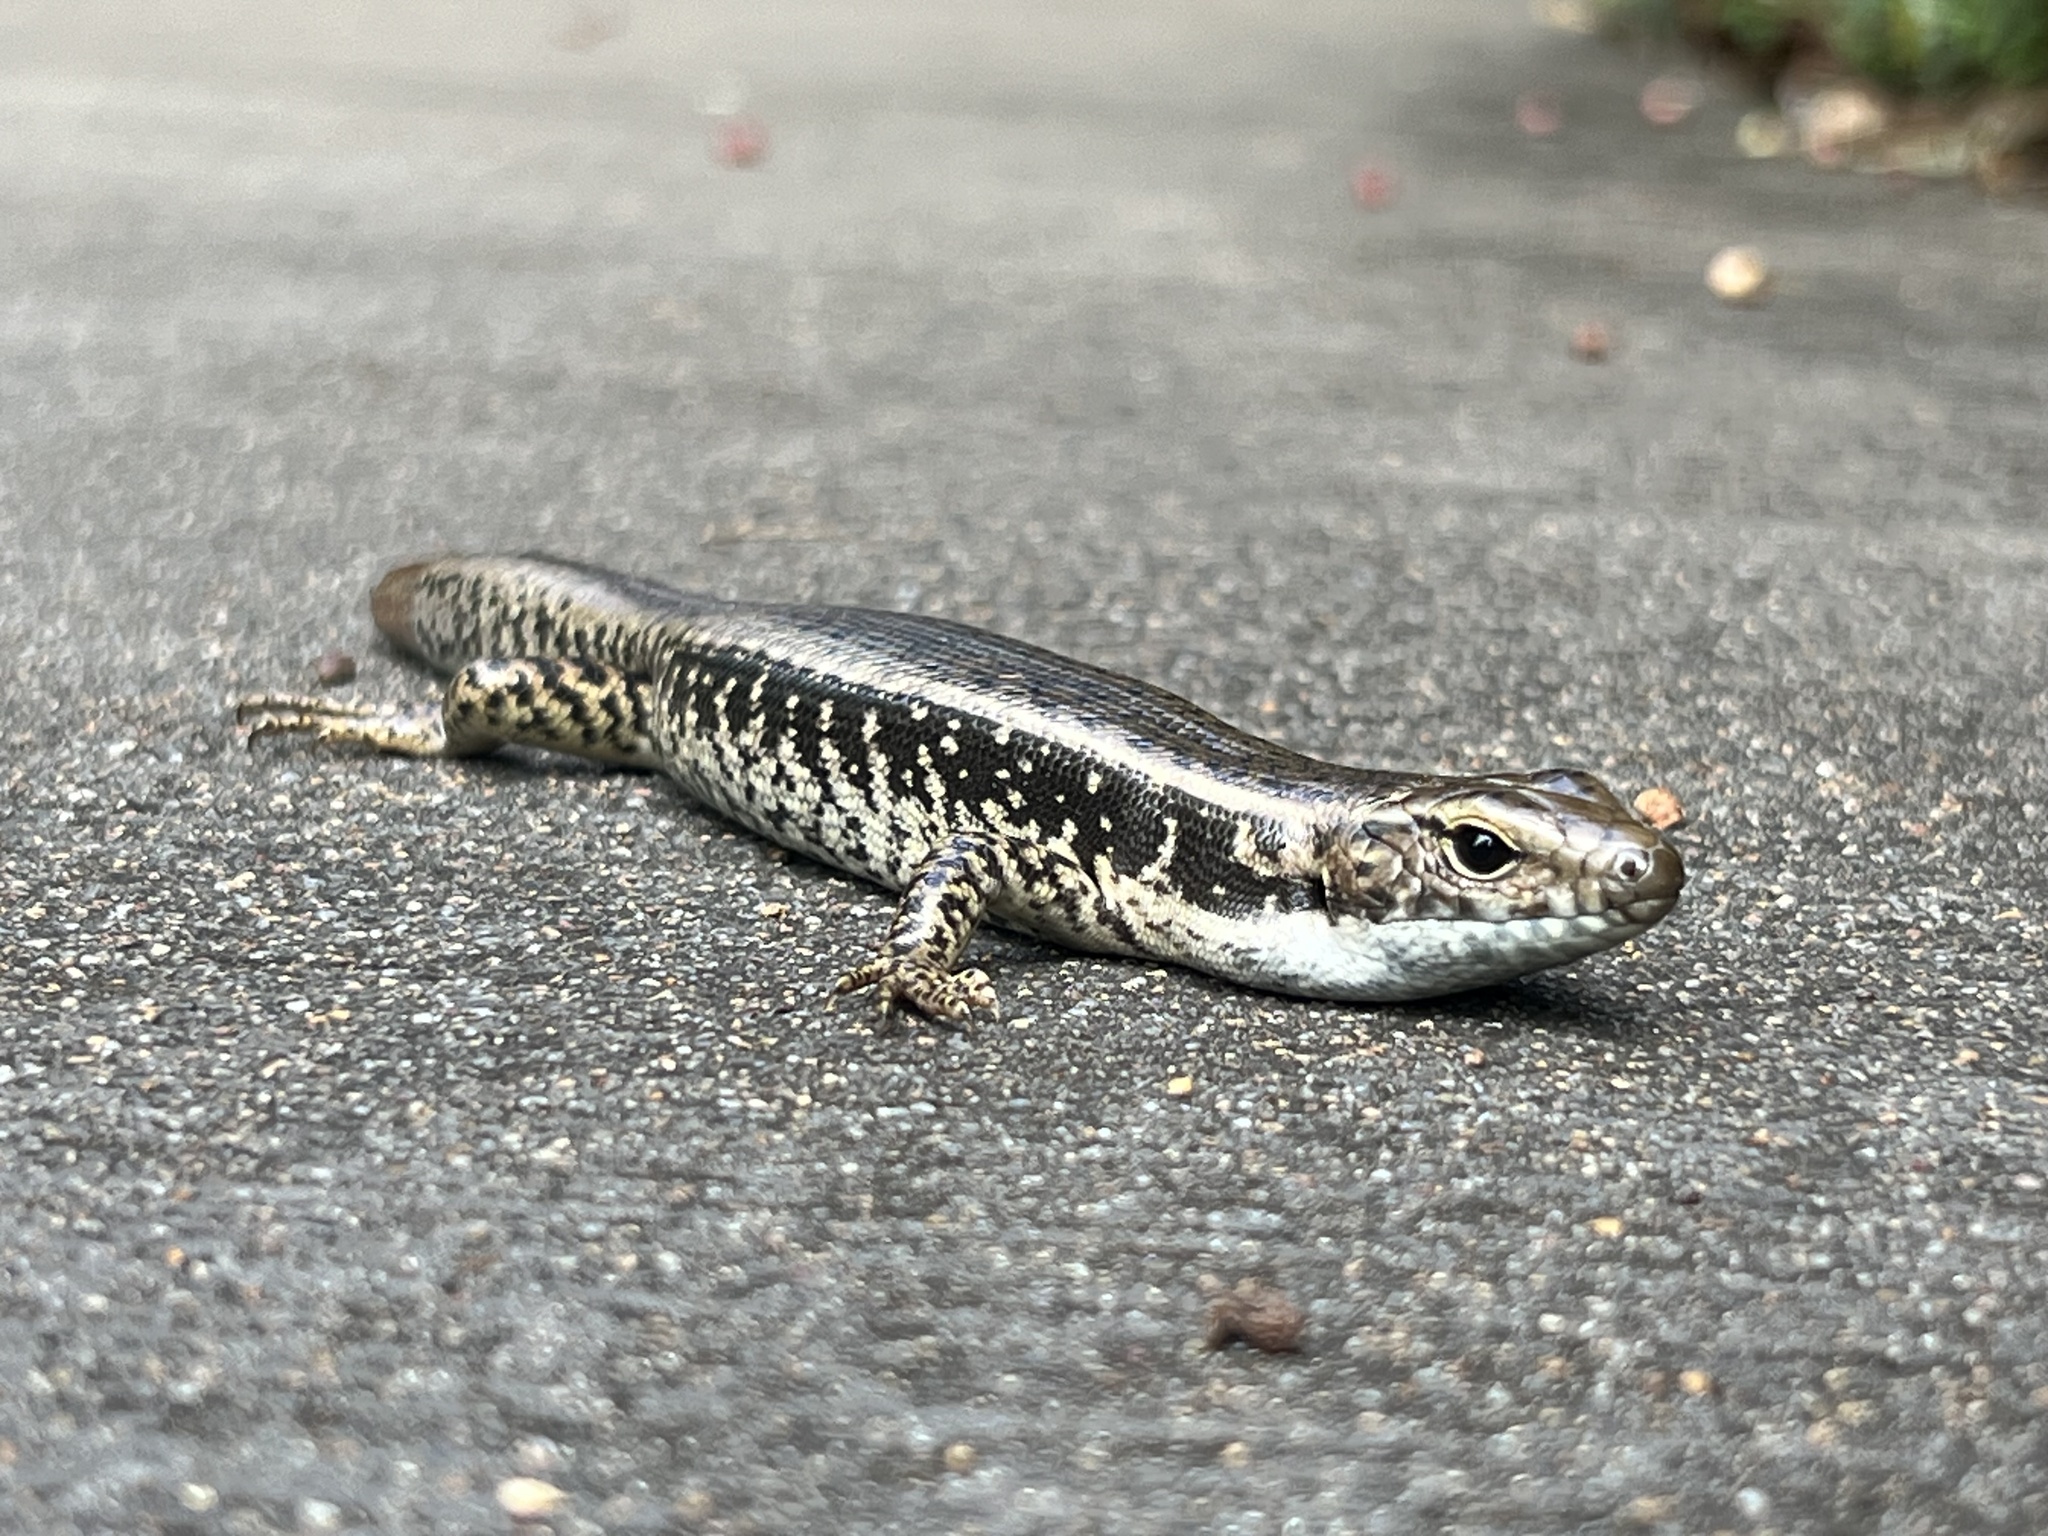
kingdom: Animalia
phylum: Chordata
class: Squamata
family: Scincidae
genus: Eulamprus
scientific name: Eulamprus quoyii
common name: Eastern water skink
